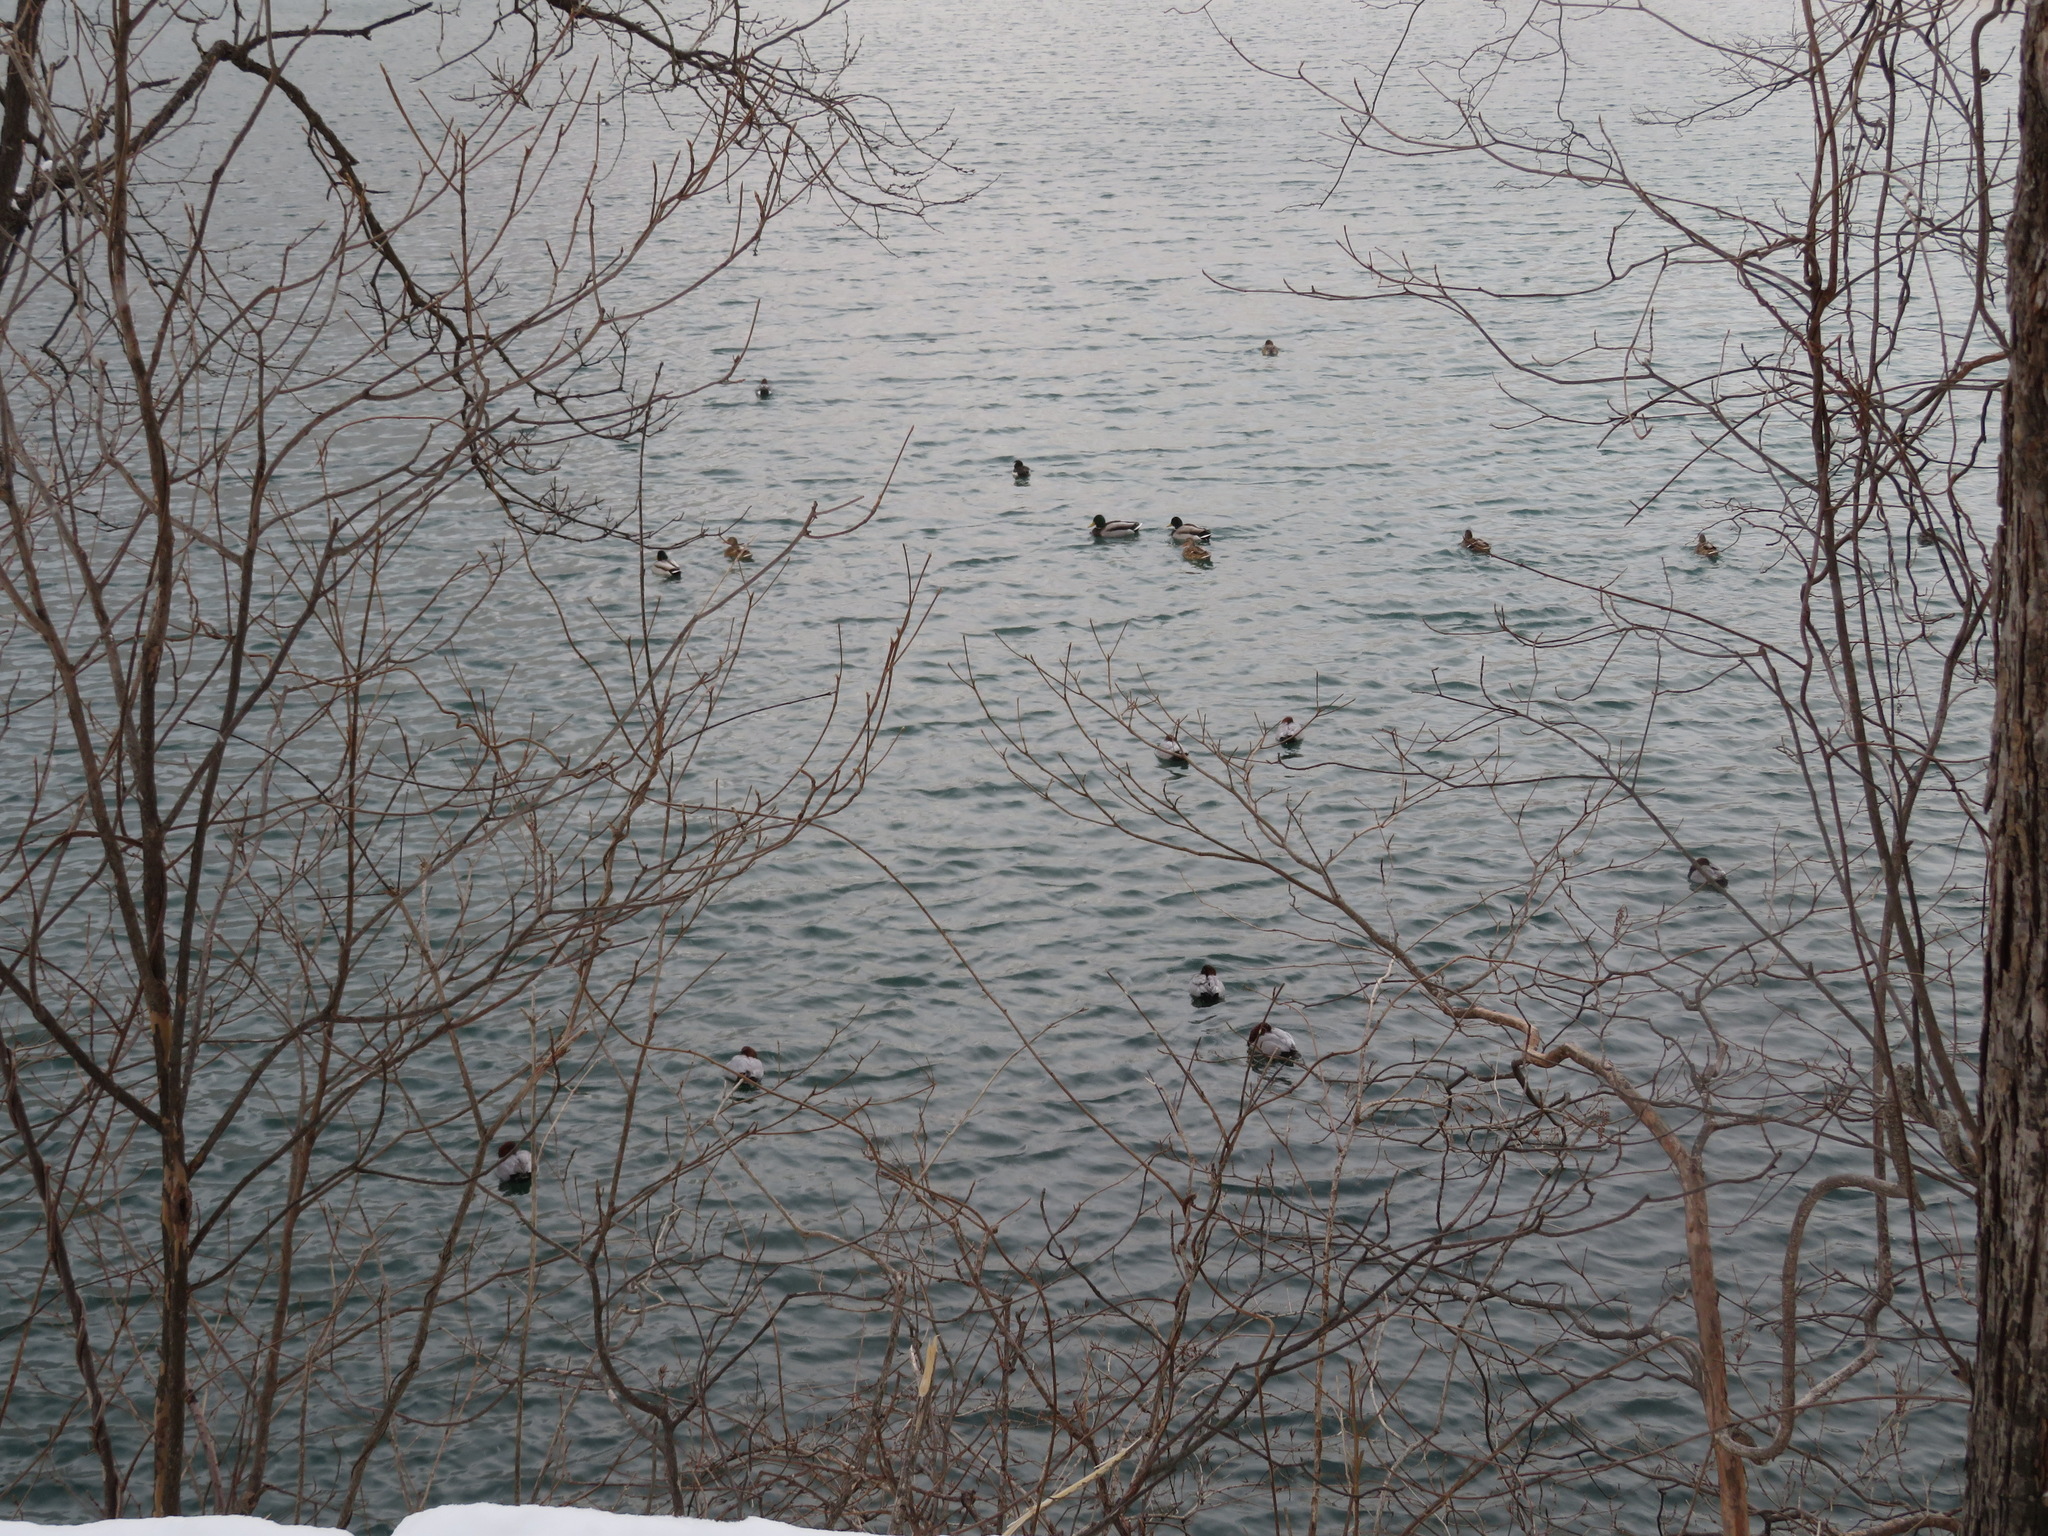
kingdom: Animalia
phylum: Chordata
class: Aves
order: Anseriformes
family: Anatidae
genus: Anas
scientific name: Anas platyrhynchos
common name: Mallard
